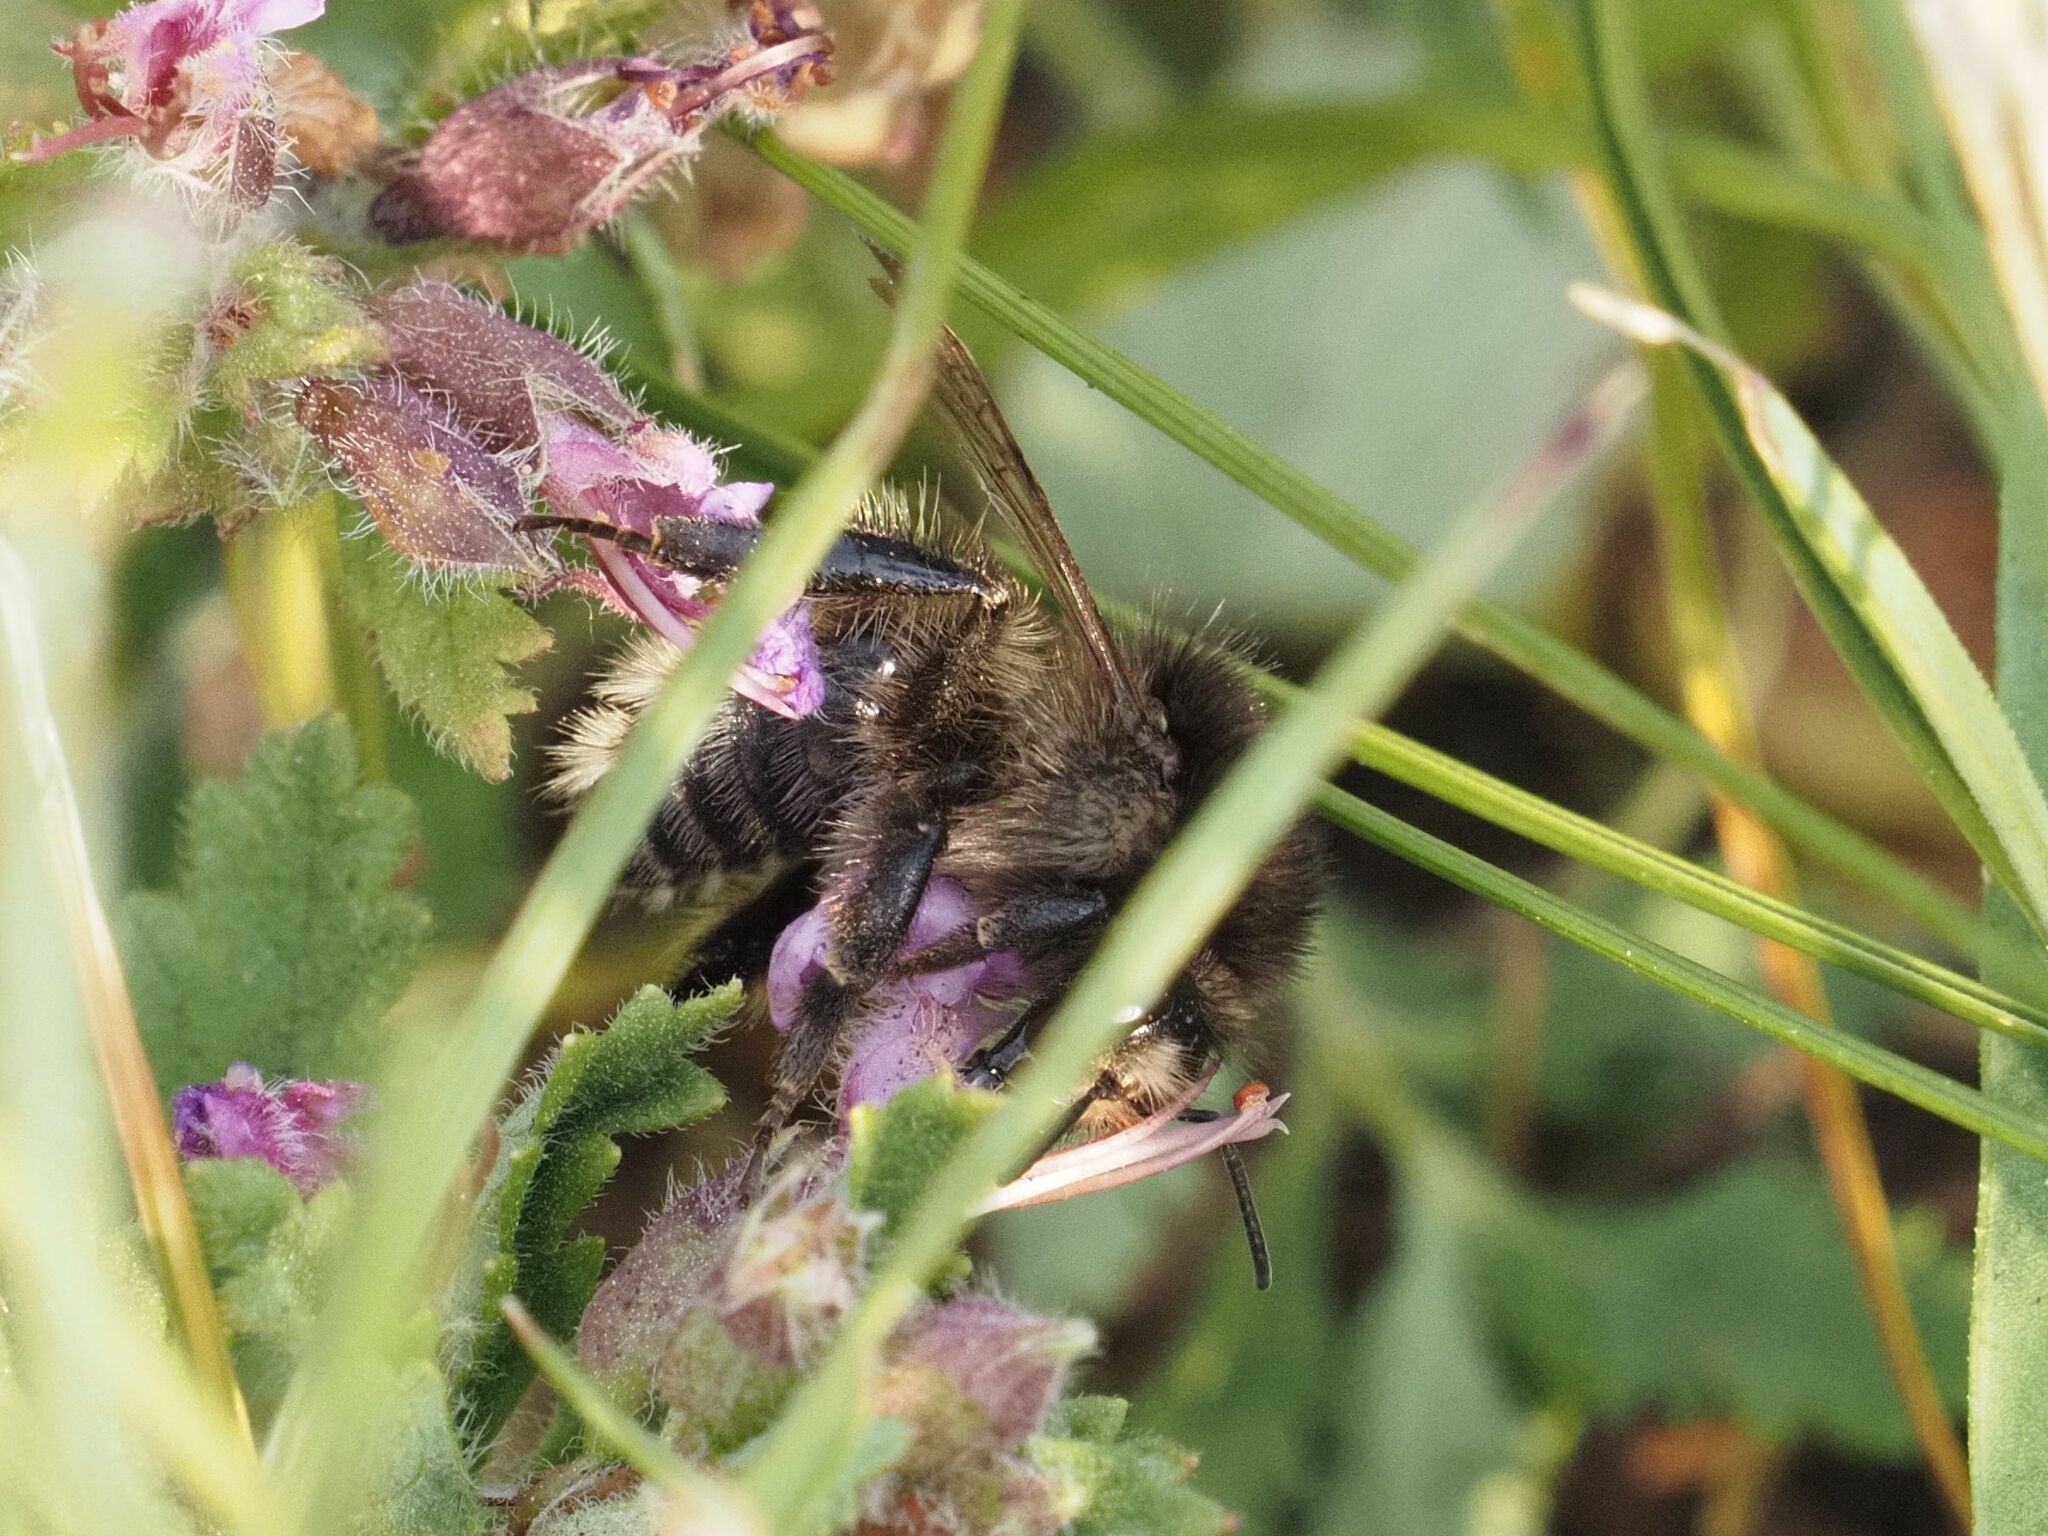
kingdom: Animalia
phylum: Arthropoda
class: Insecta
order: Hymenoptera
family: Apidae
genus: Bombus
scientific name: Bombus humilis
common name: Brown-banded carder-bee
